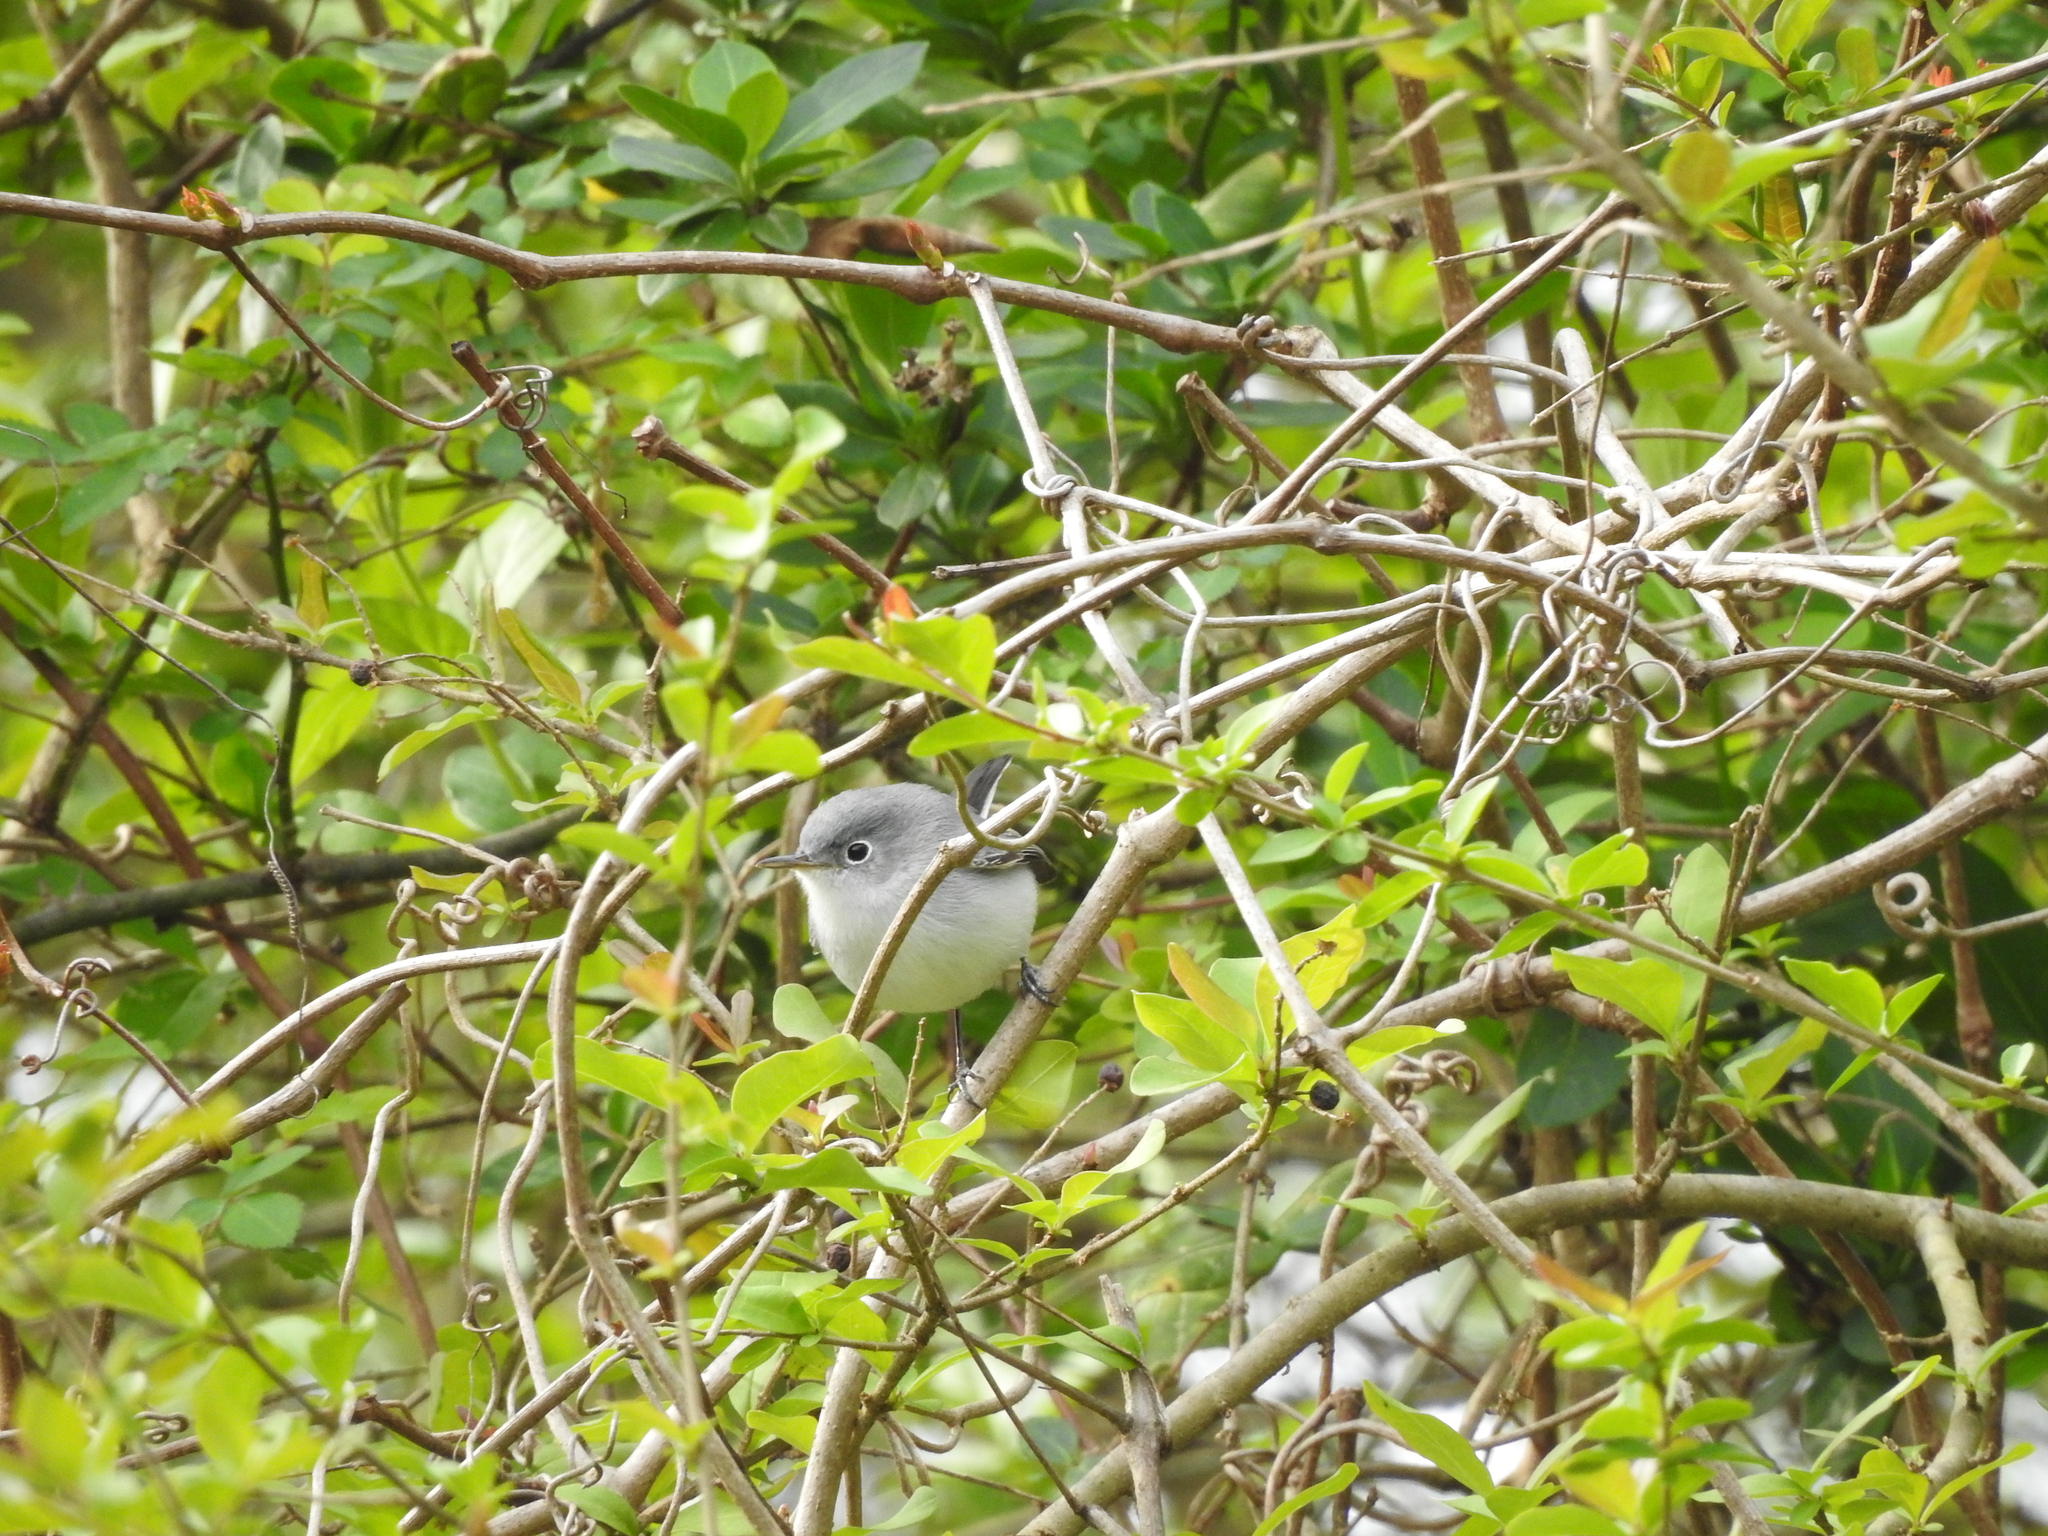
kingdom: Animalia
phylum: Chordata
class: Aves
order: Passeriformes
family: Polioptilidae
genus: Polioptila
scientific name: Polioptila caerulea
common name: Blue-gray gnatcatcher
